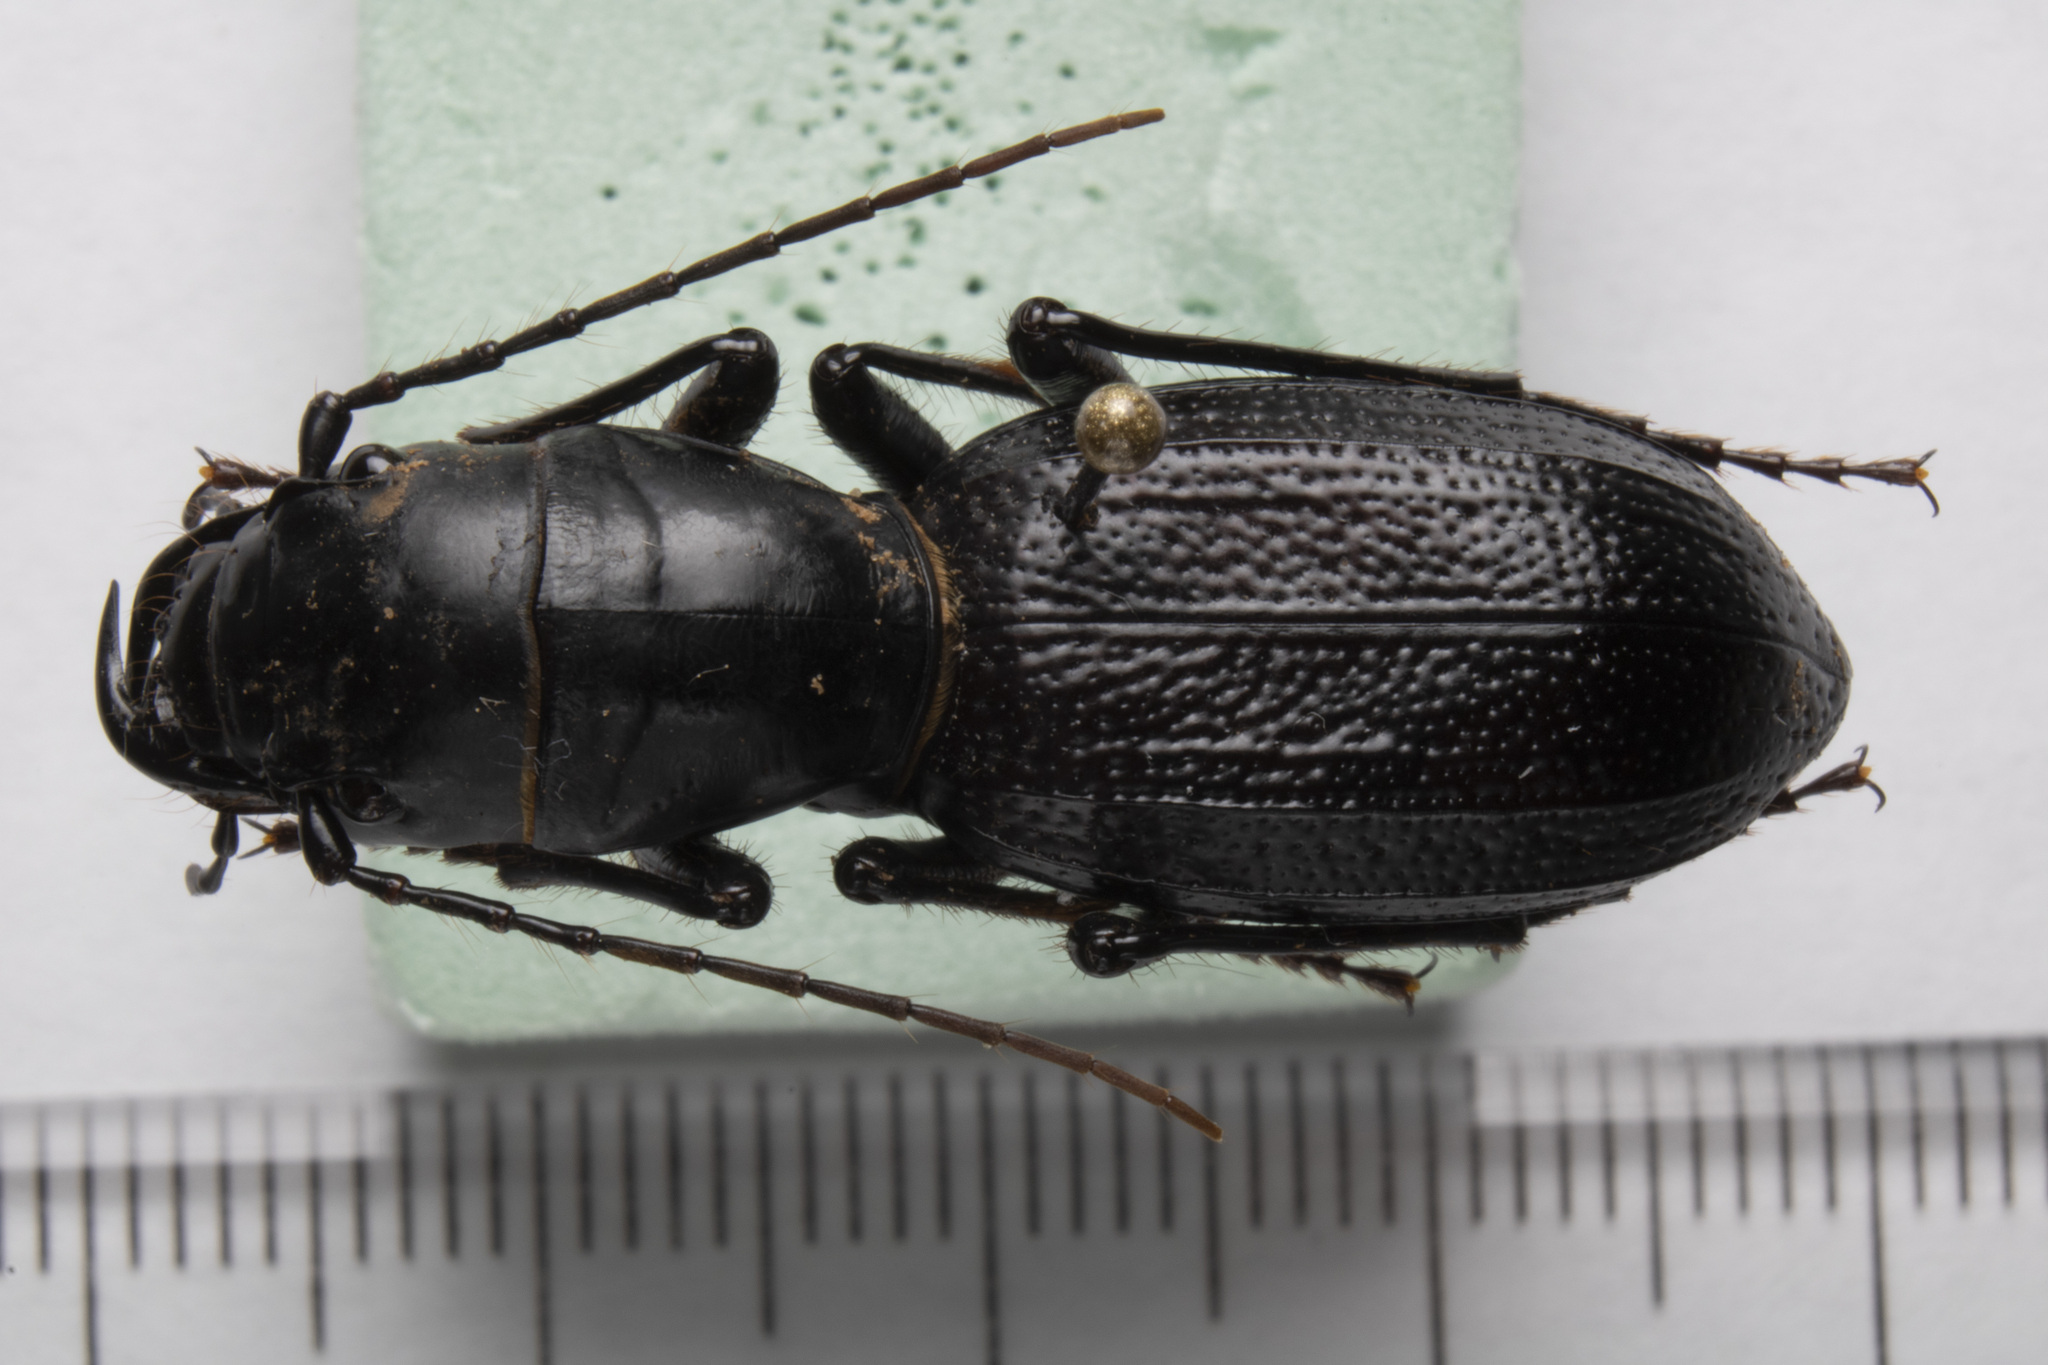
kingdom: Animalia
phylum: Arthropoda
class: Insecta
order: Coleoptera
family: Carabidae
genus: Amblycheila
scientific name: Amblycheila cylindriformis
